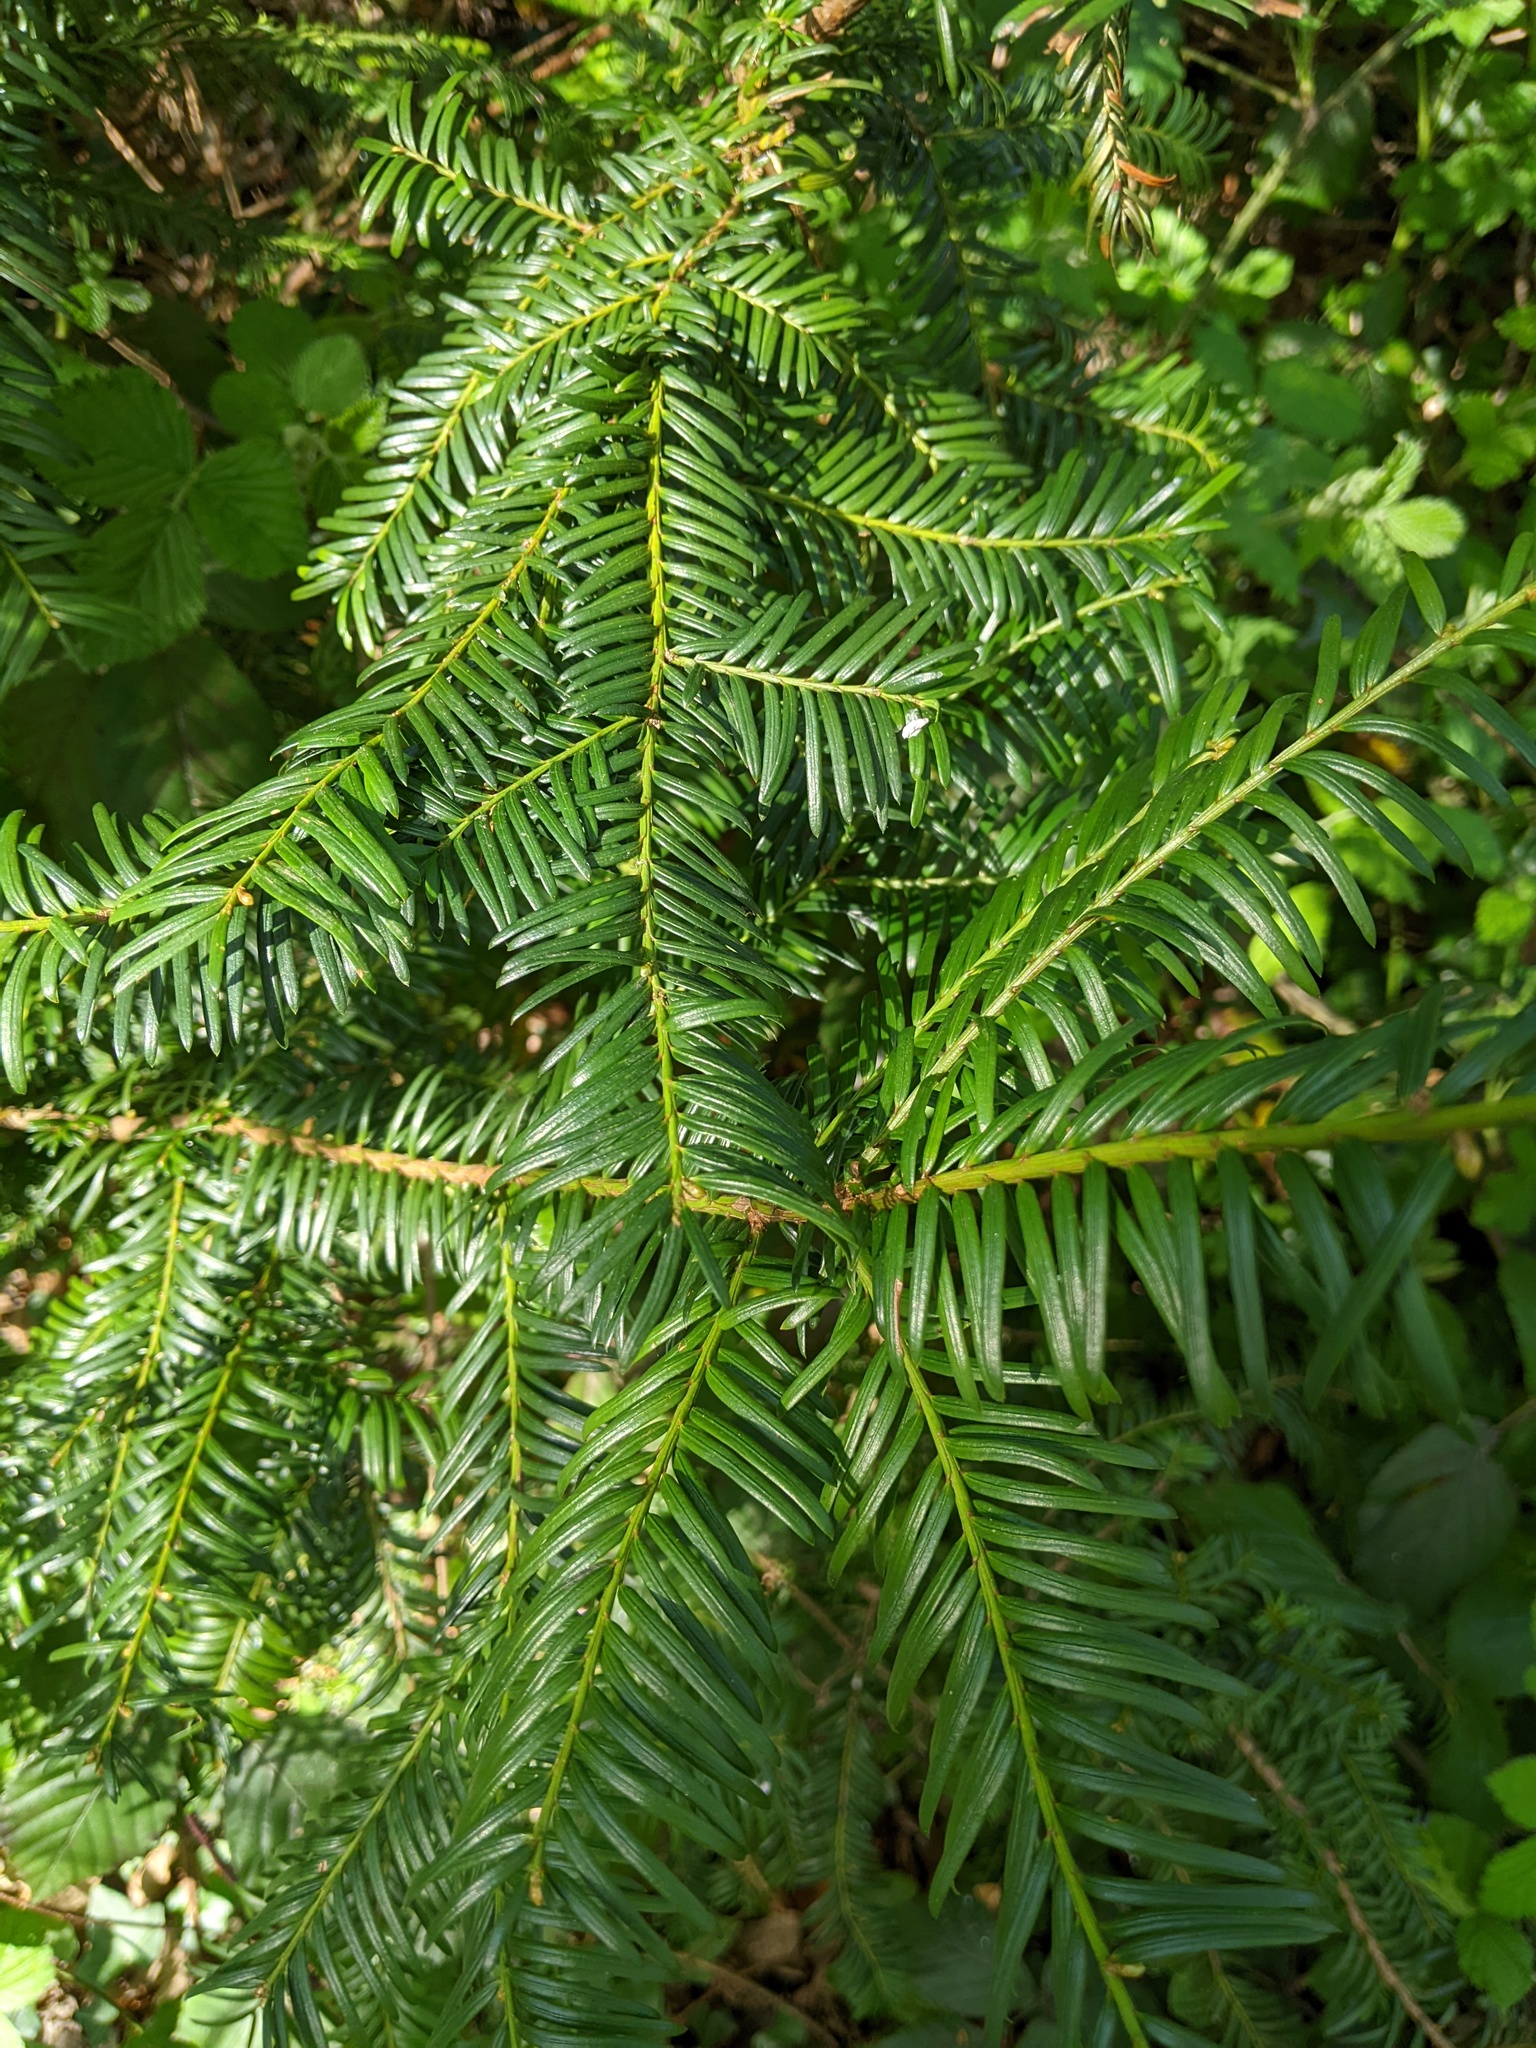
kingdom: Plantae
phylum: Tracheophyta
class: Pinopsida
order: Pinales
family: Taxaceae
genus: Taxus
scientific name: Taxus baccata
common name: Yew
